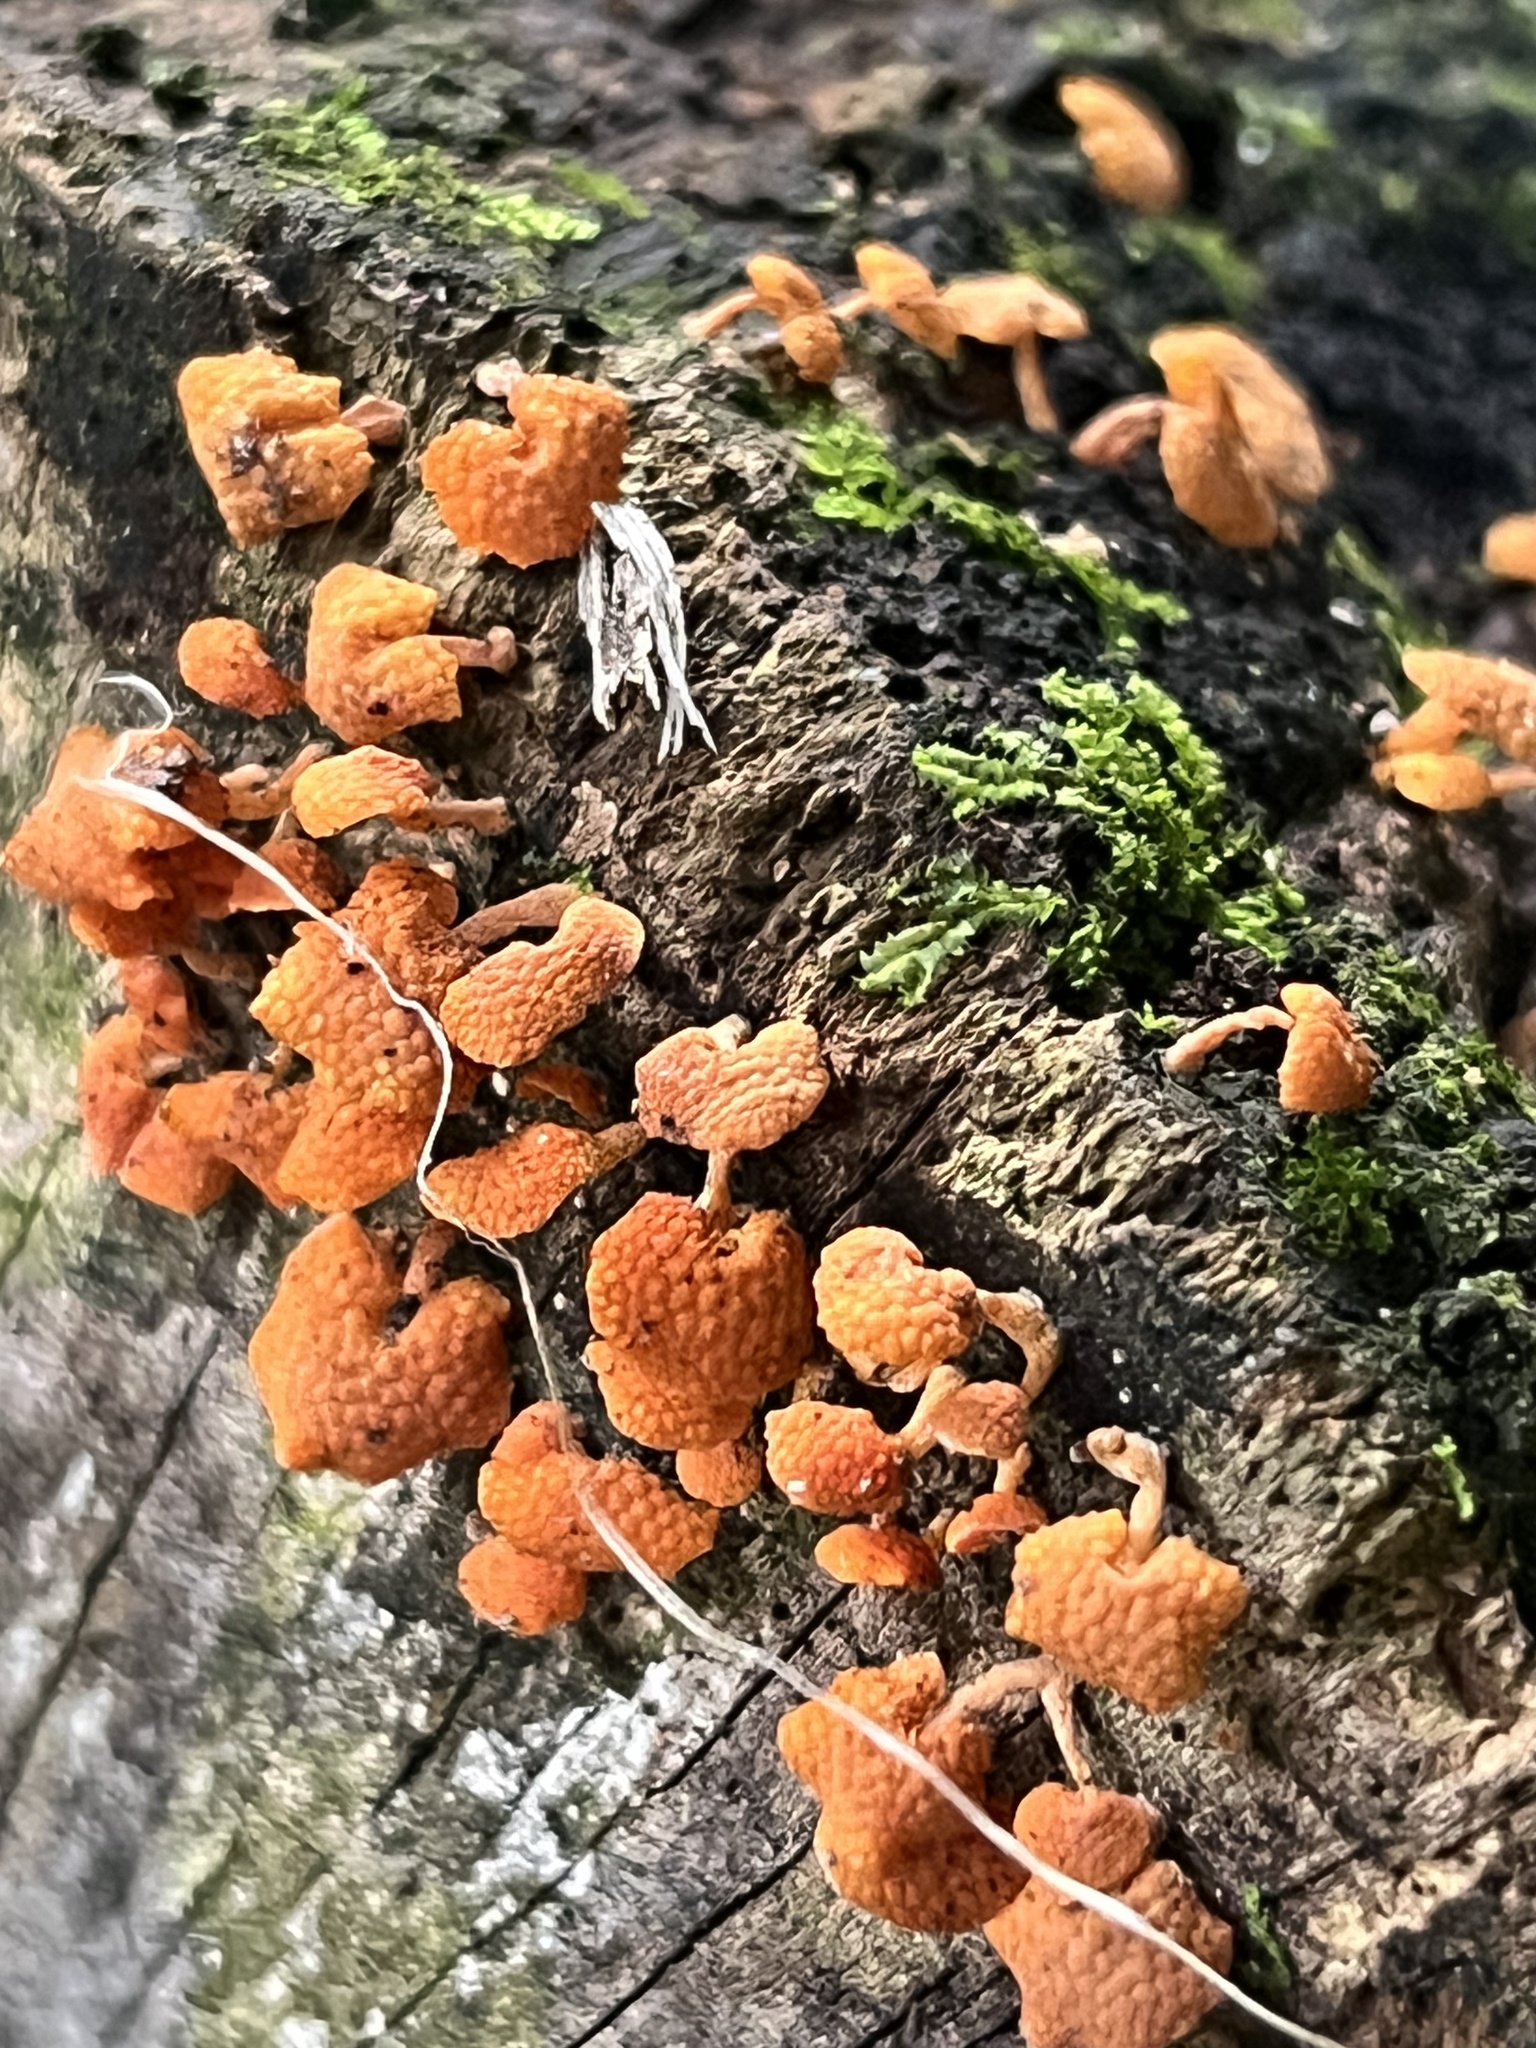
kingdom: Fungi
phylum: Basidiomycota
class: Agaricomycetes
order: Agaricales
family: Mycenaceae
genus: Favolaschia
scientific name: Favolaschia claudopus
